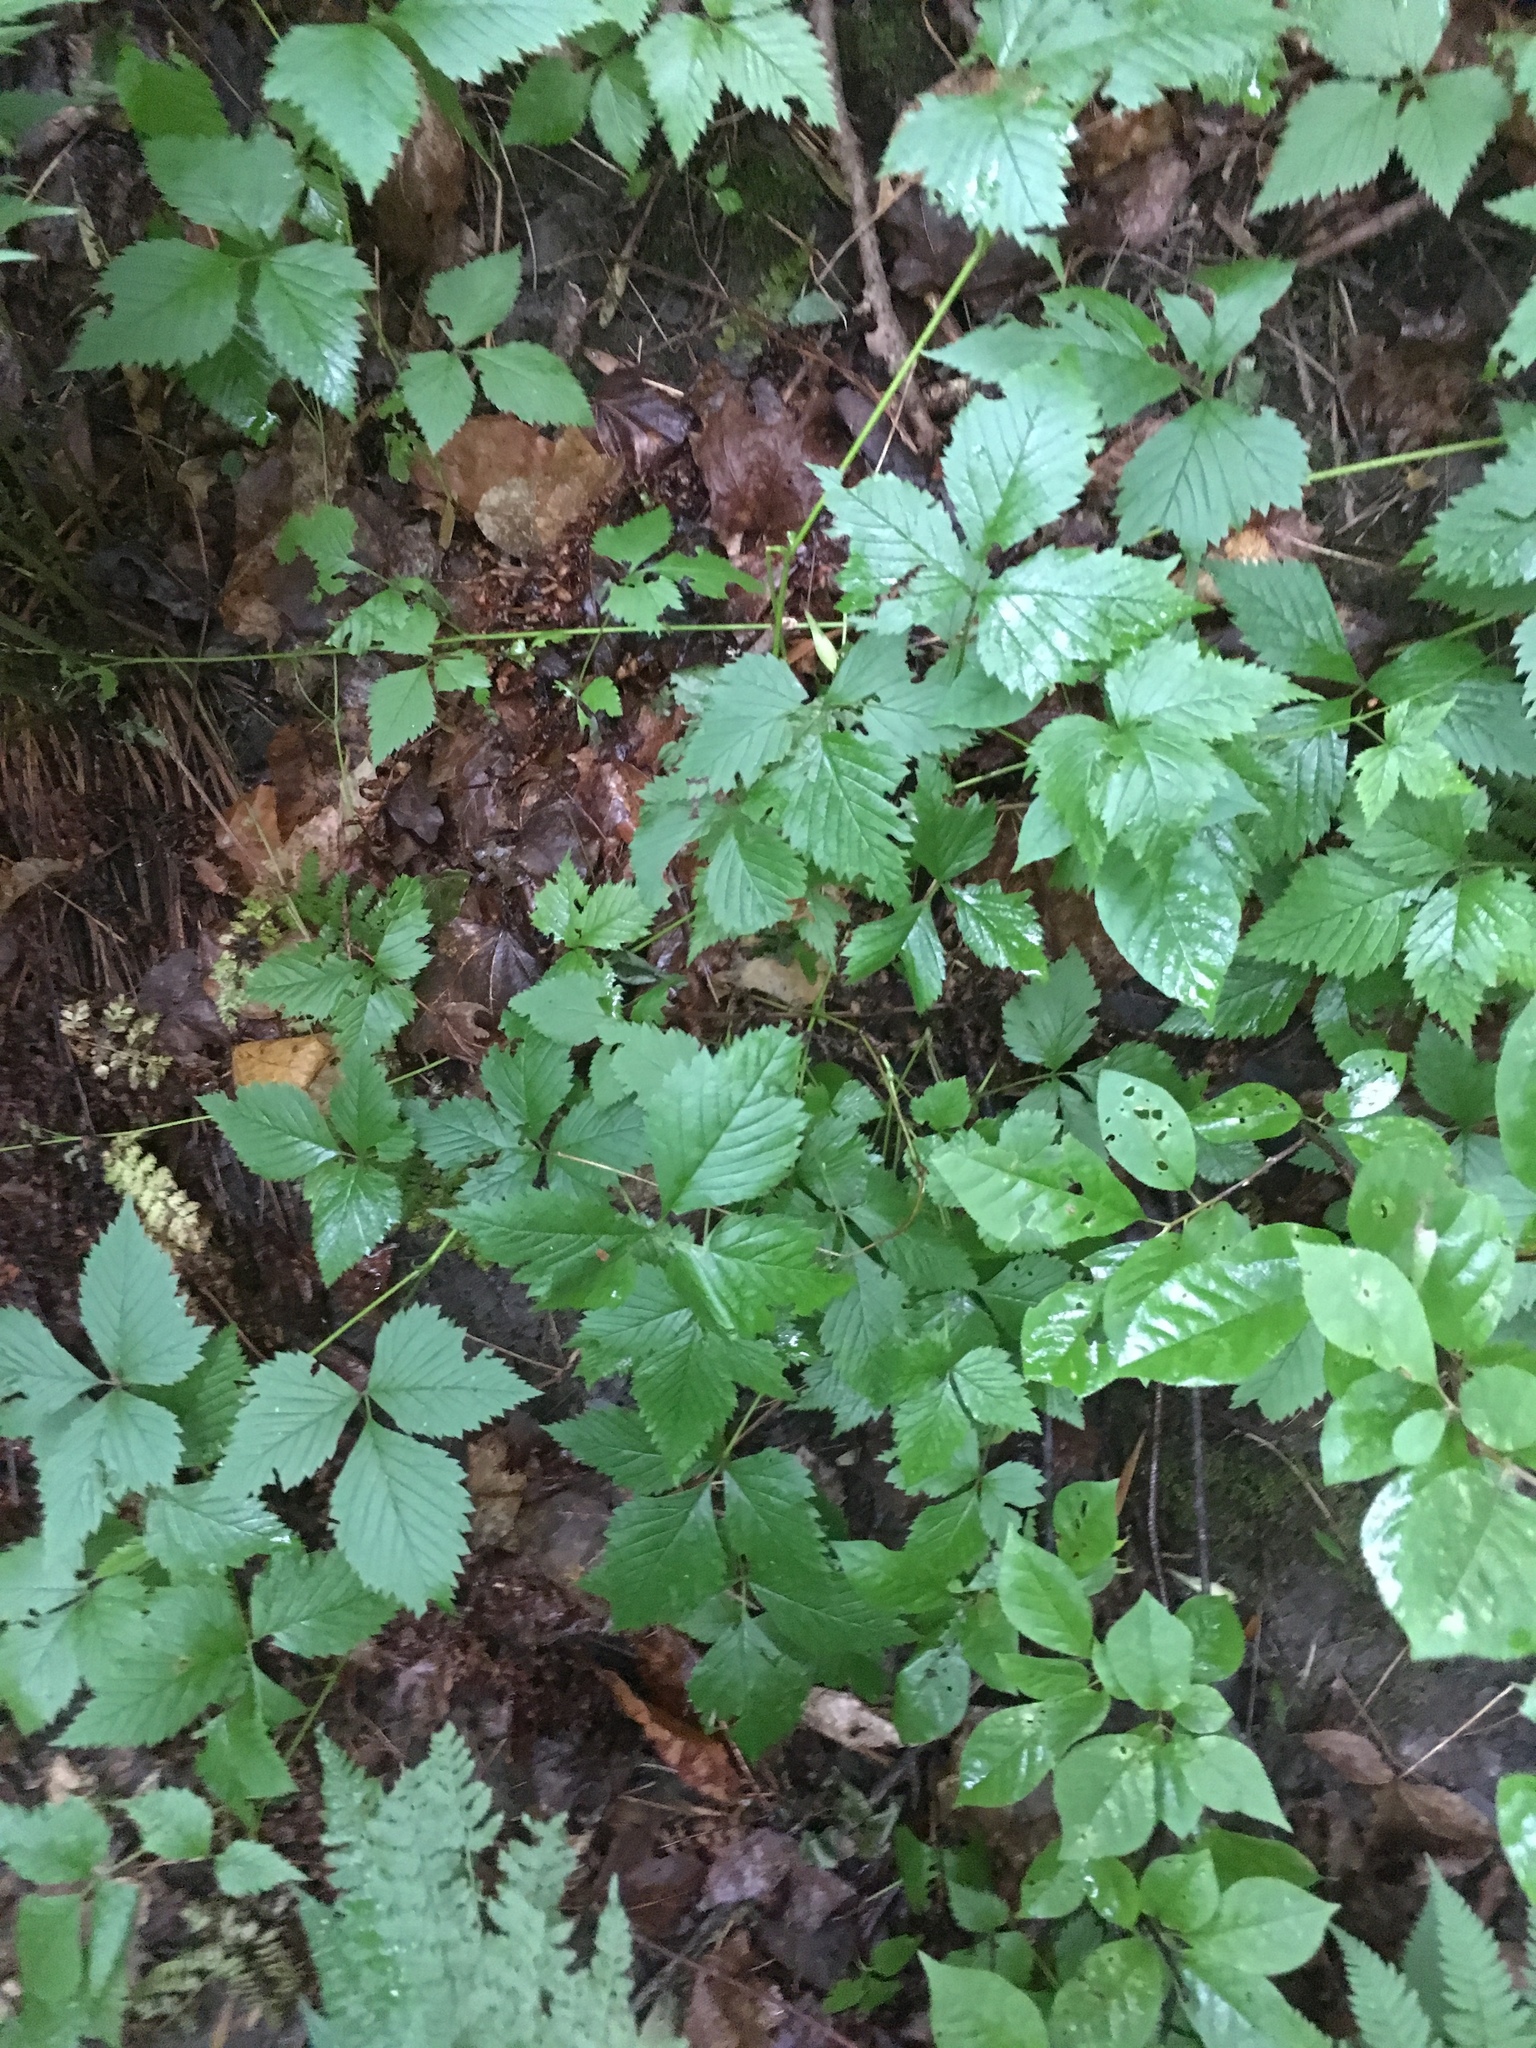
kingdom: Plantae
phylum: Tracheophyta
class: Magnoliopsida
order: Rosales
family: Rosaceae
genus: Rubus
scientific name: Rubus pubescens
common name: Dwarf raspberry
